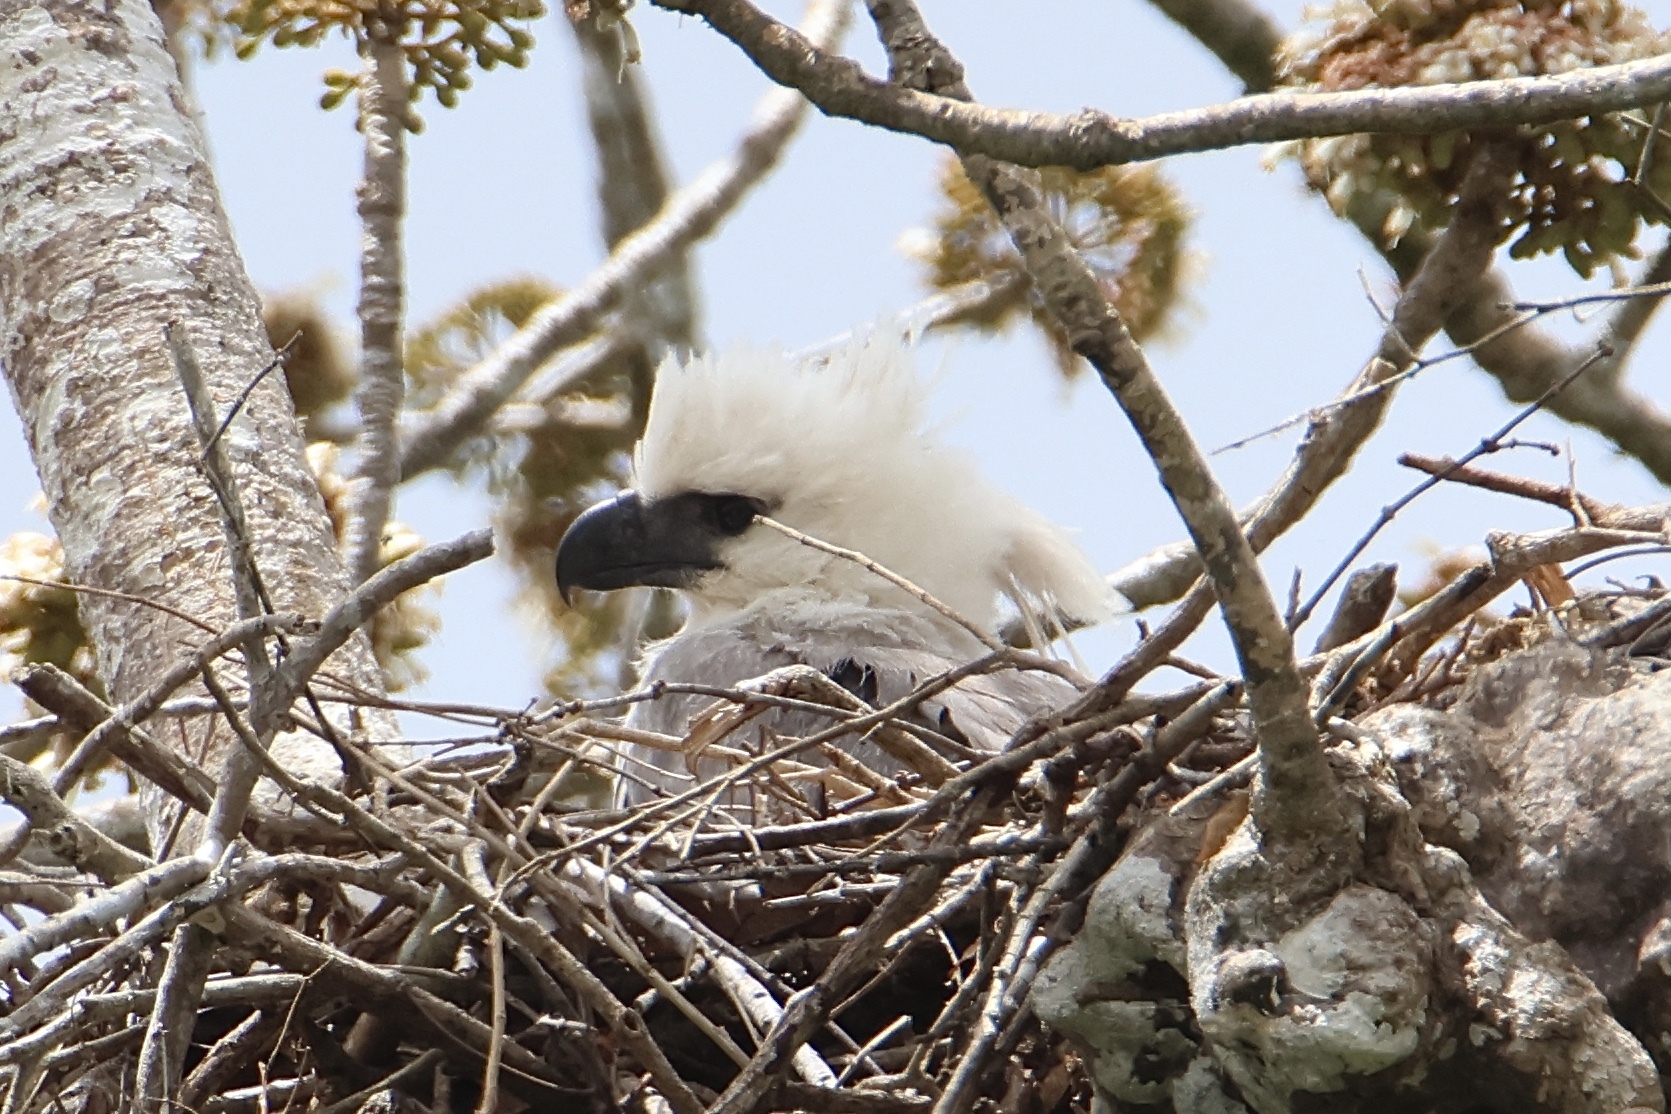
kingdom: Animalia
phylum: Chordata
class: Aves
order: Accipitriformes
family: Accipitridae
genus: Harpia
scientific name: Harpia harpyja
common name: Harpy eagle
